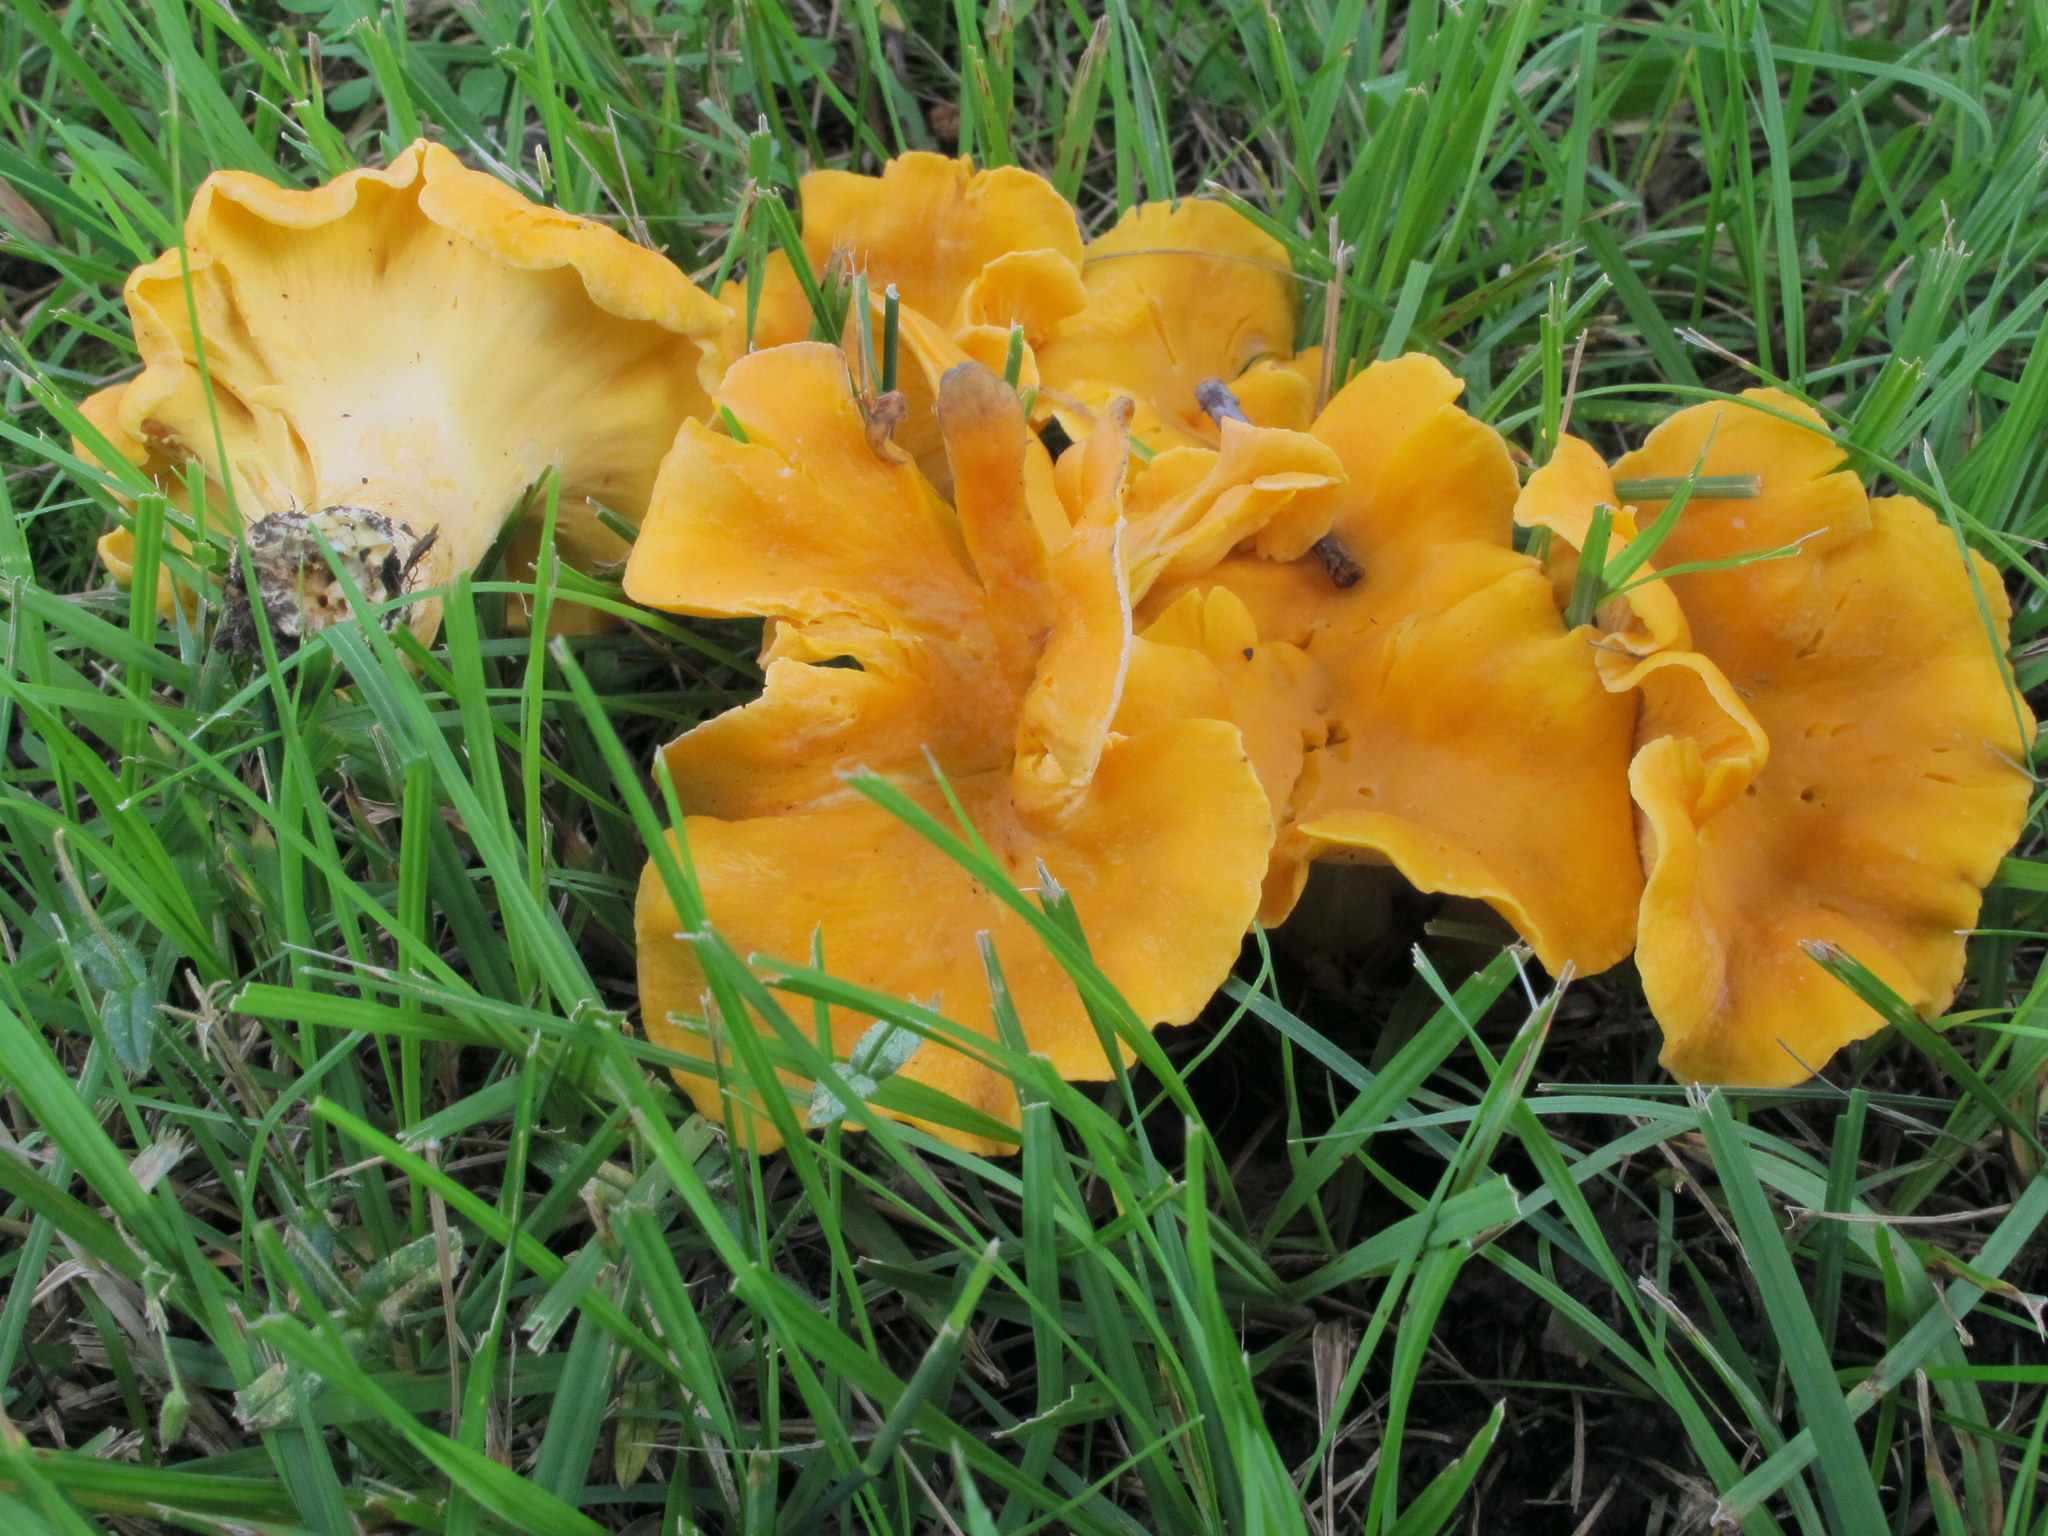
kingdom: Fungi
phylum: Basidiomycota
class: Agaricomycetes
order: Cantharellales
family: Hydnaceae
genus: Cantharellus
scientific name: Cantharellus lateritius
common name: Smooth chanterelle
